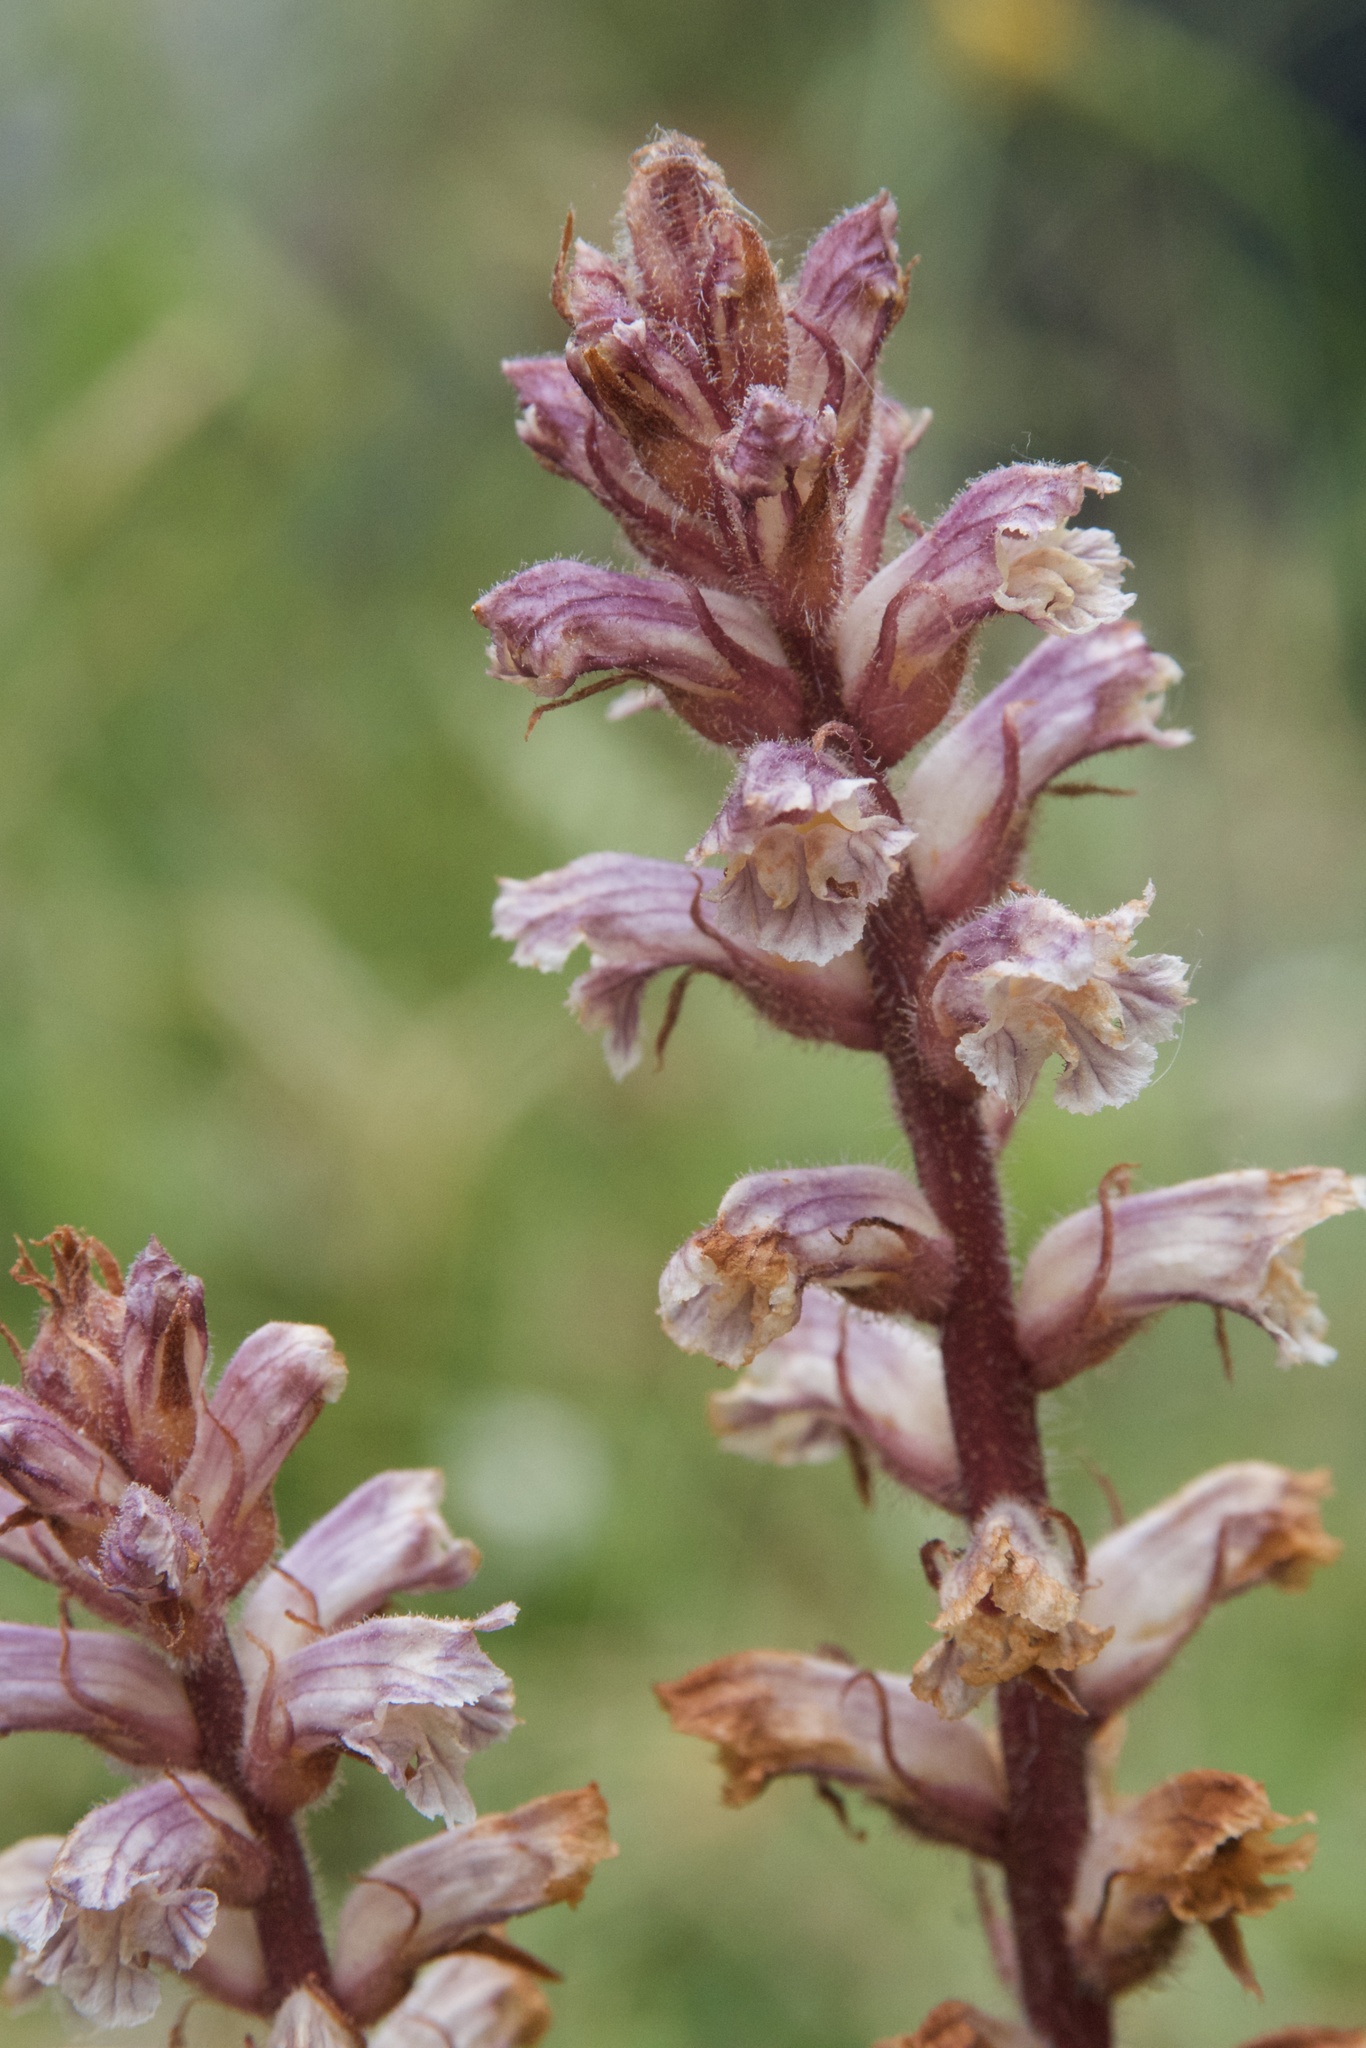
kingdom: Plantae
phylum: Tracheophyta
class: Magnoliopsida
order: Lamiales
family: Orobanchaceae
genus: Orobanche
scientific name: Orobanche minor
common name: Common broomrape
